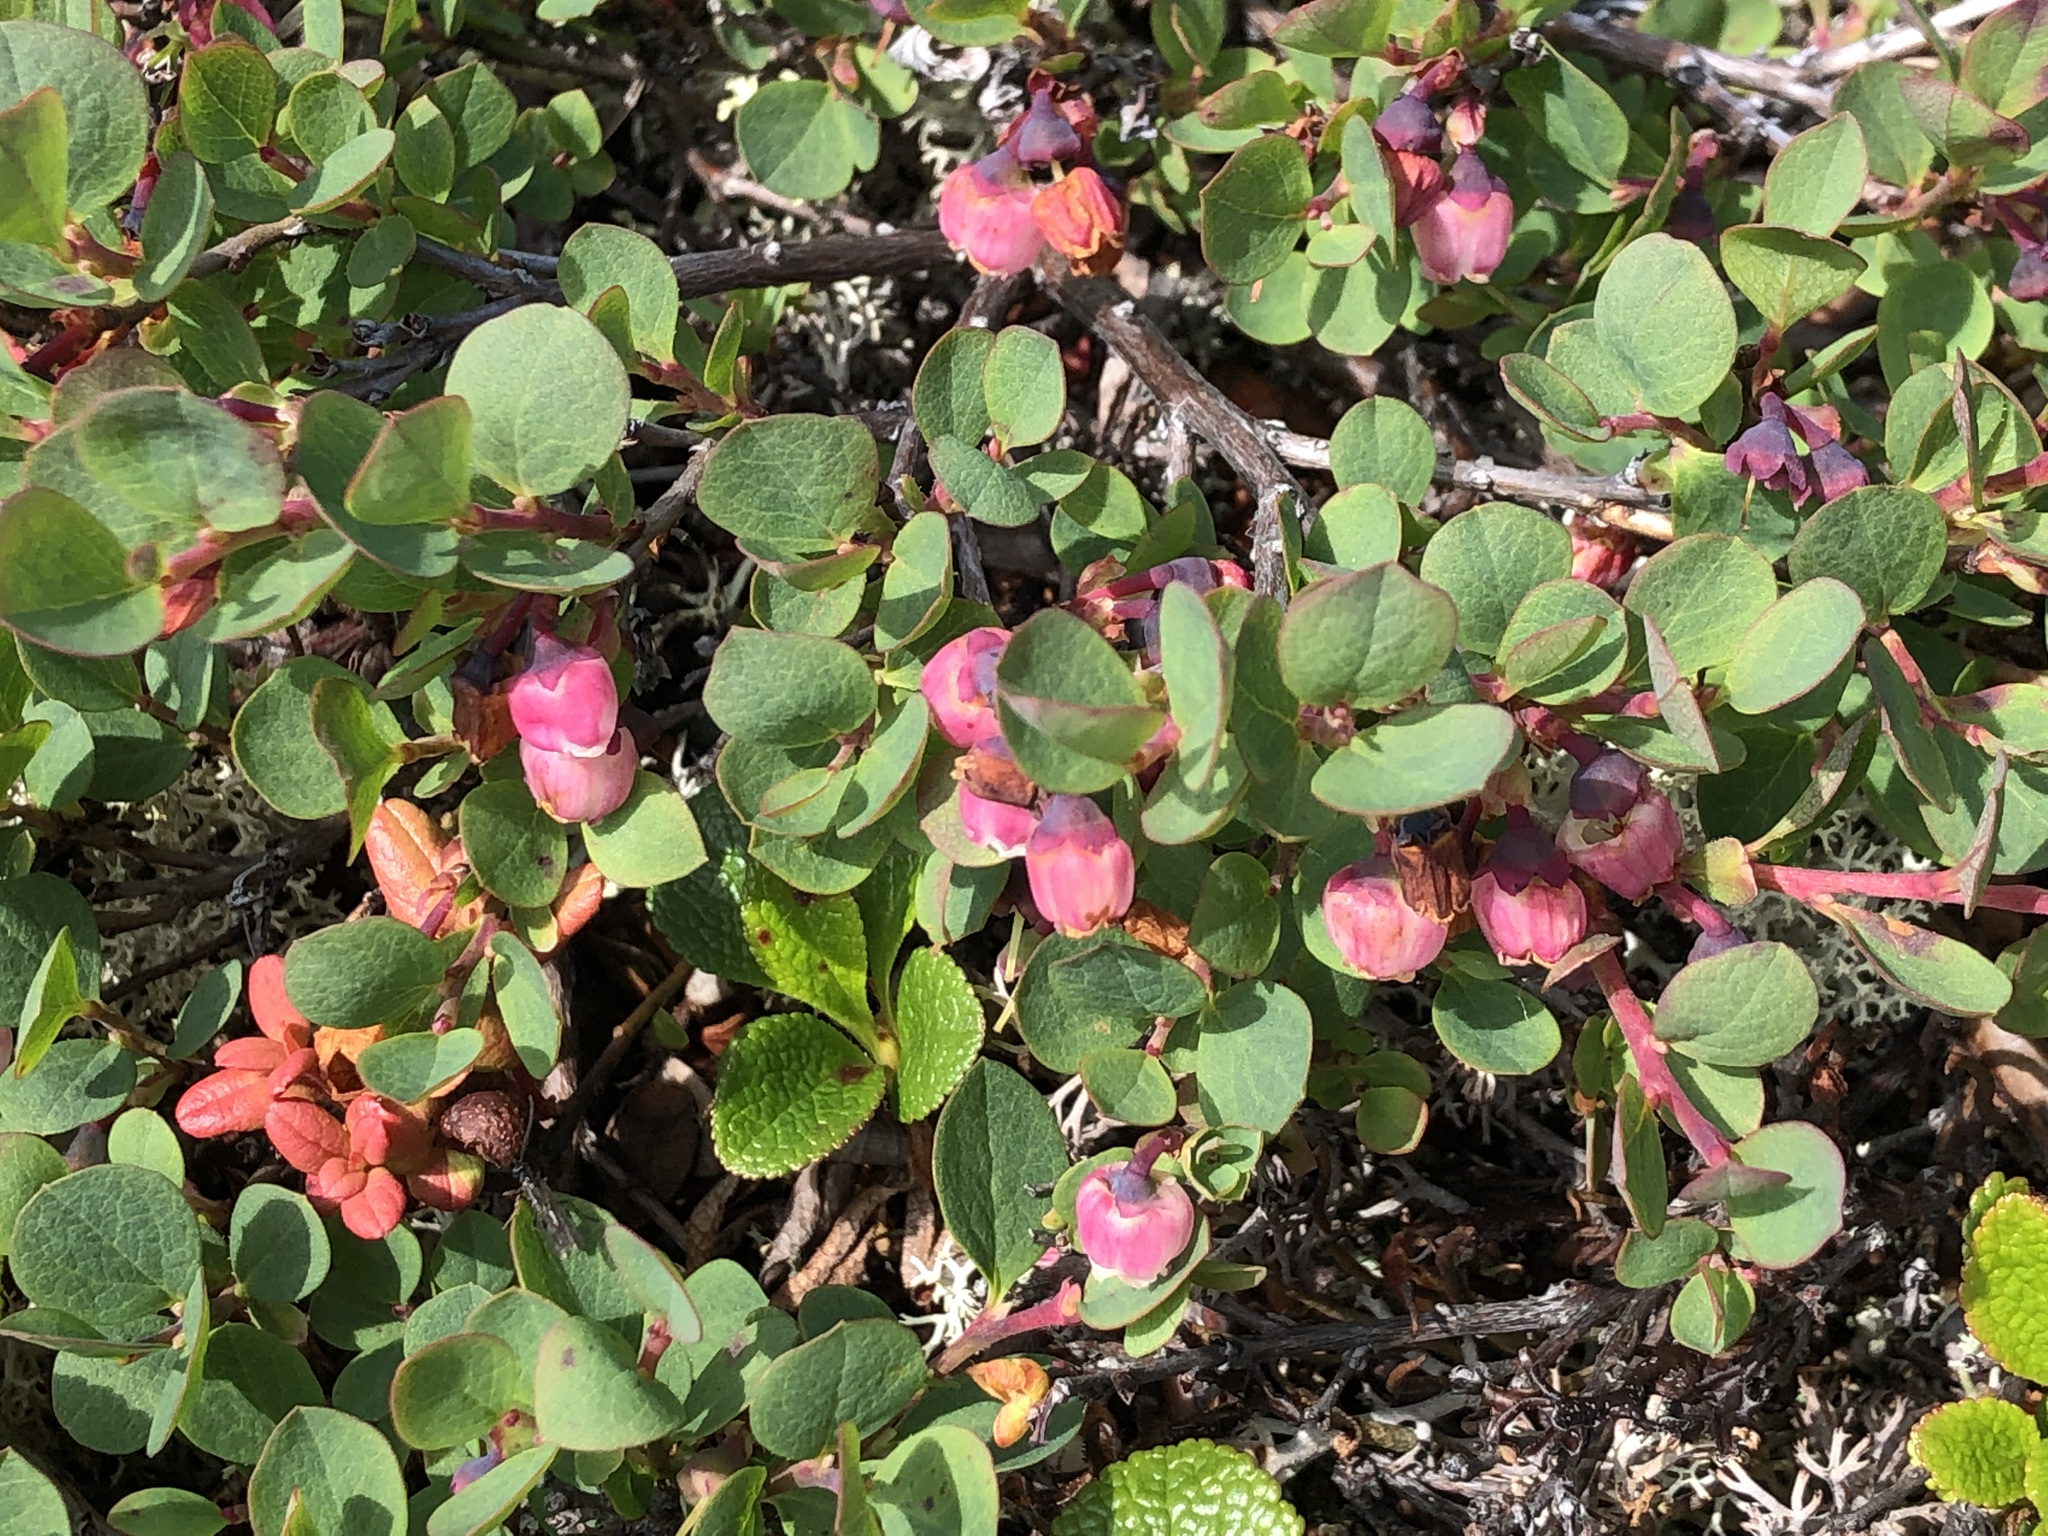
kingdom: Plantae
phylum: Tracheophyta
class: Magnoliopsida
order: Ericales
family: Ericaceae
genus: Vaccinium
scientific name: Vaccinium uliginosum
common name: Bog bilberry
